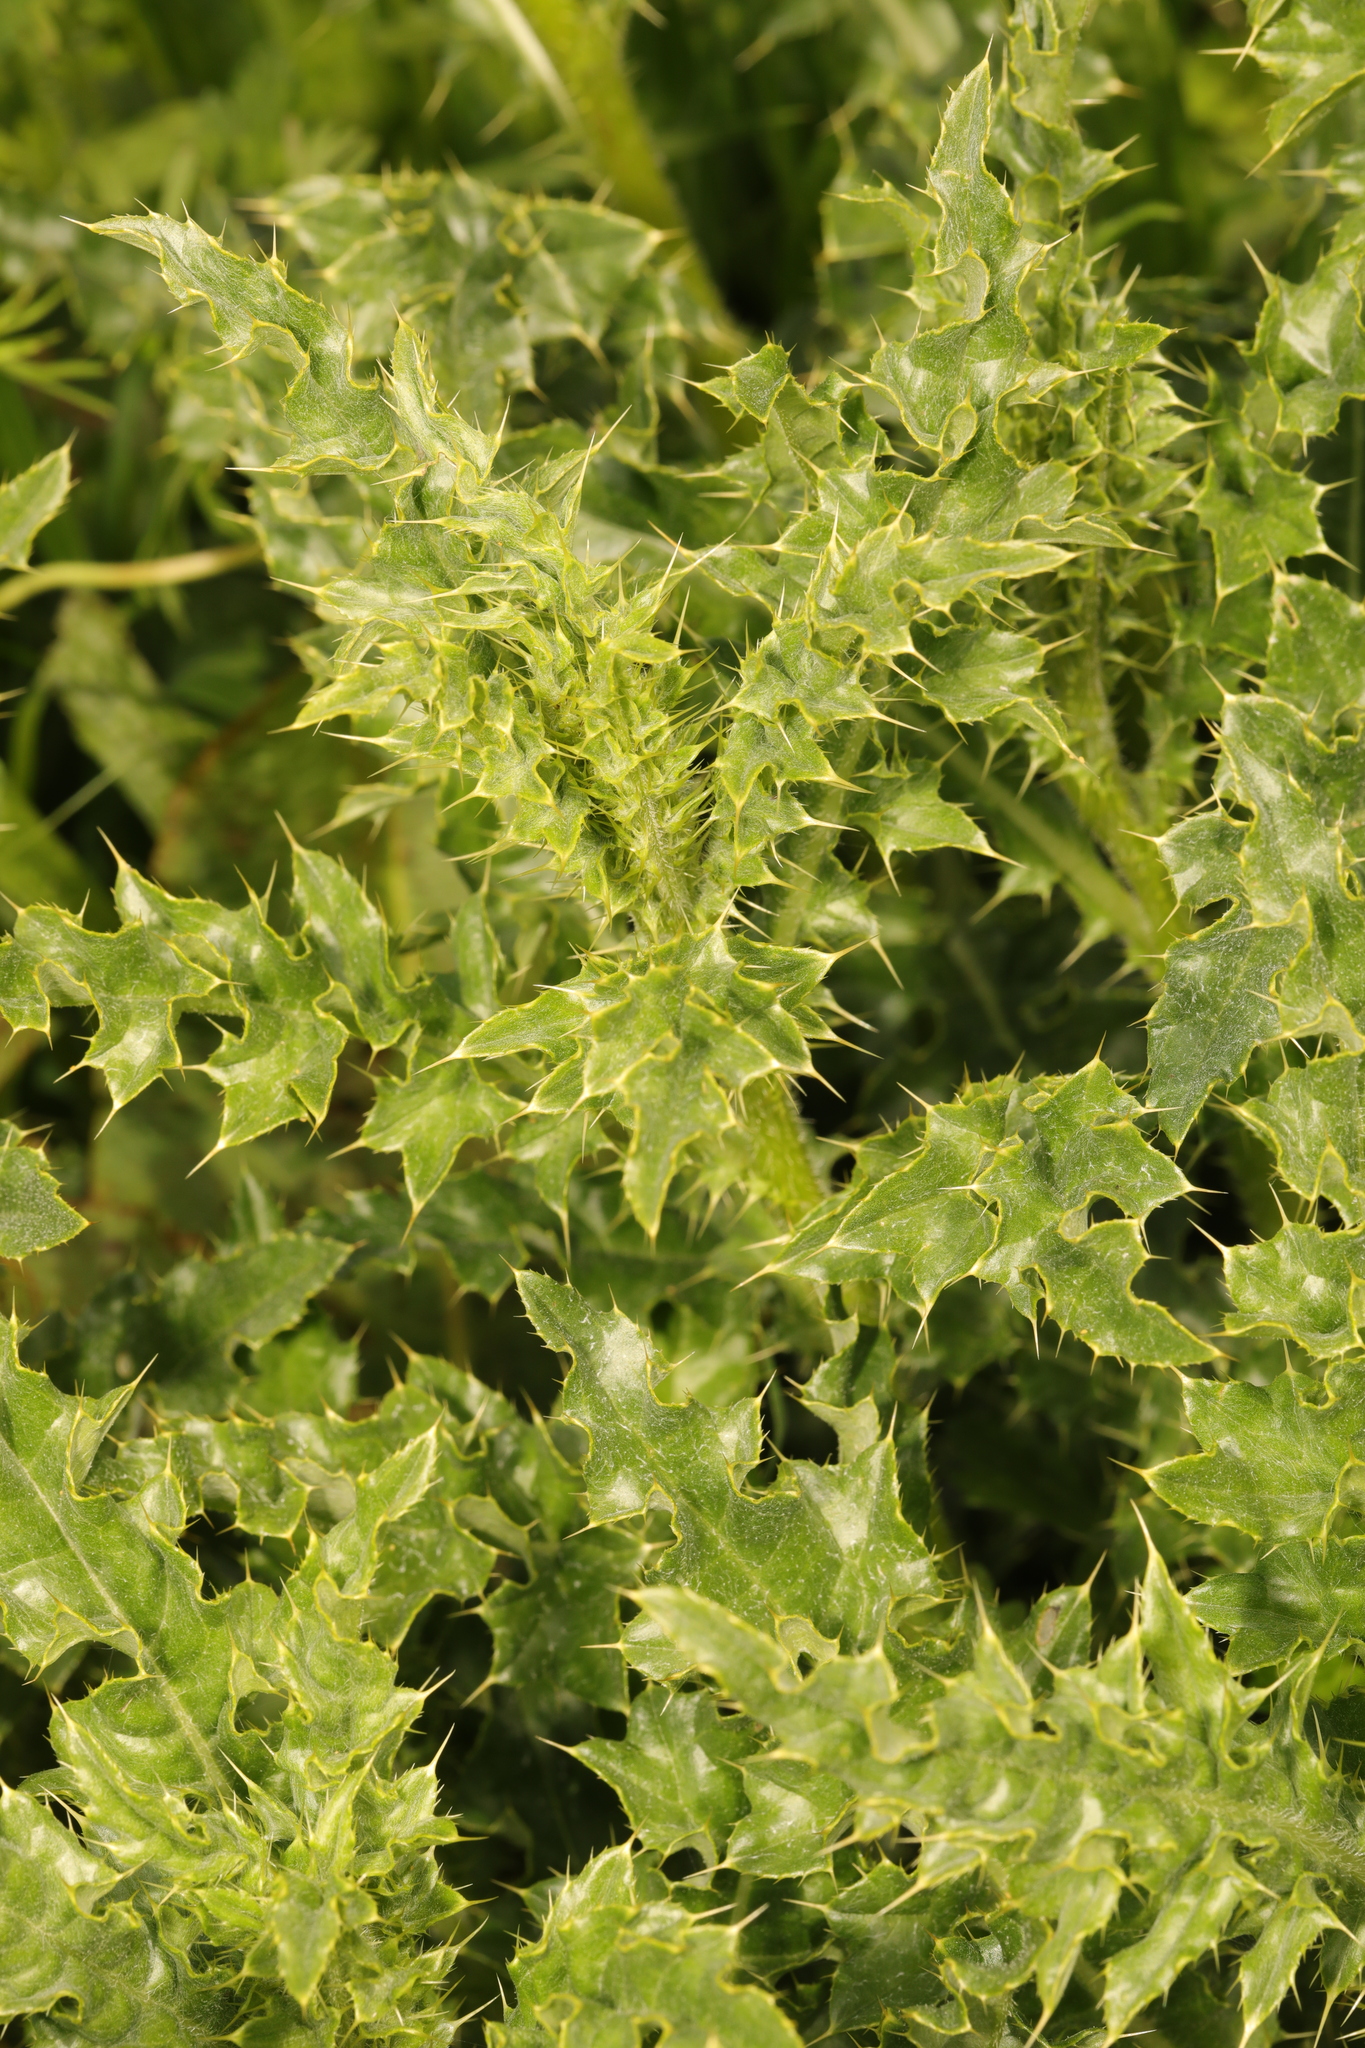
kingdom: Plantae
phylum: Tracheophyta
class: Magnoliopsida
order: Asterales
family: Asteraceae
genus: Cirsium
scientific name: Cirsium arvense
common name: Creeping thistle
